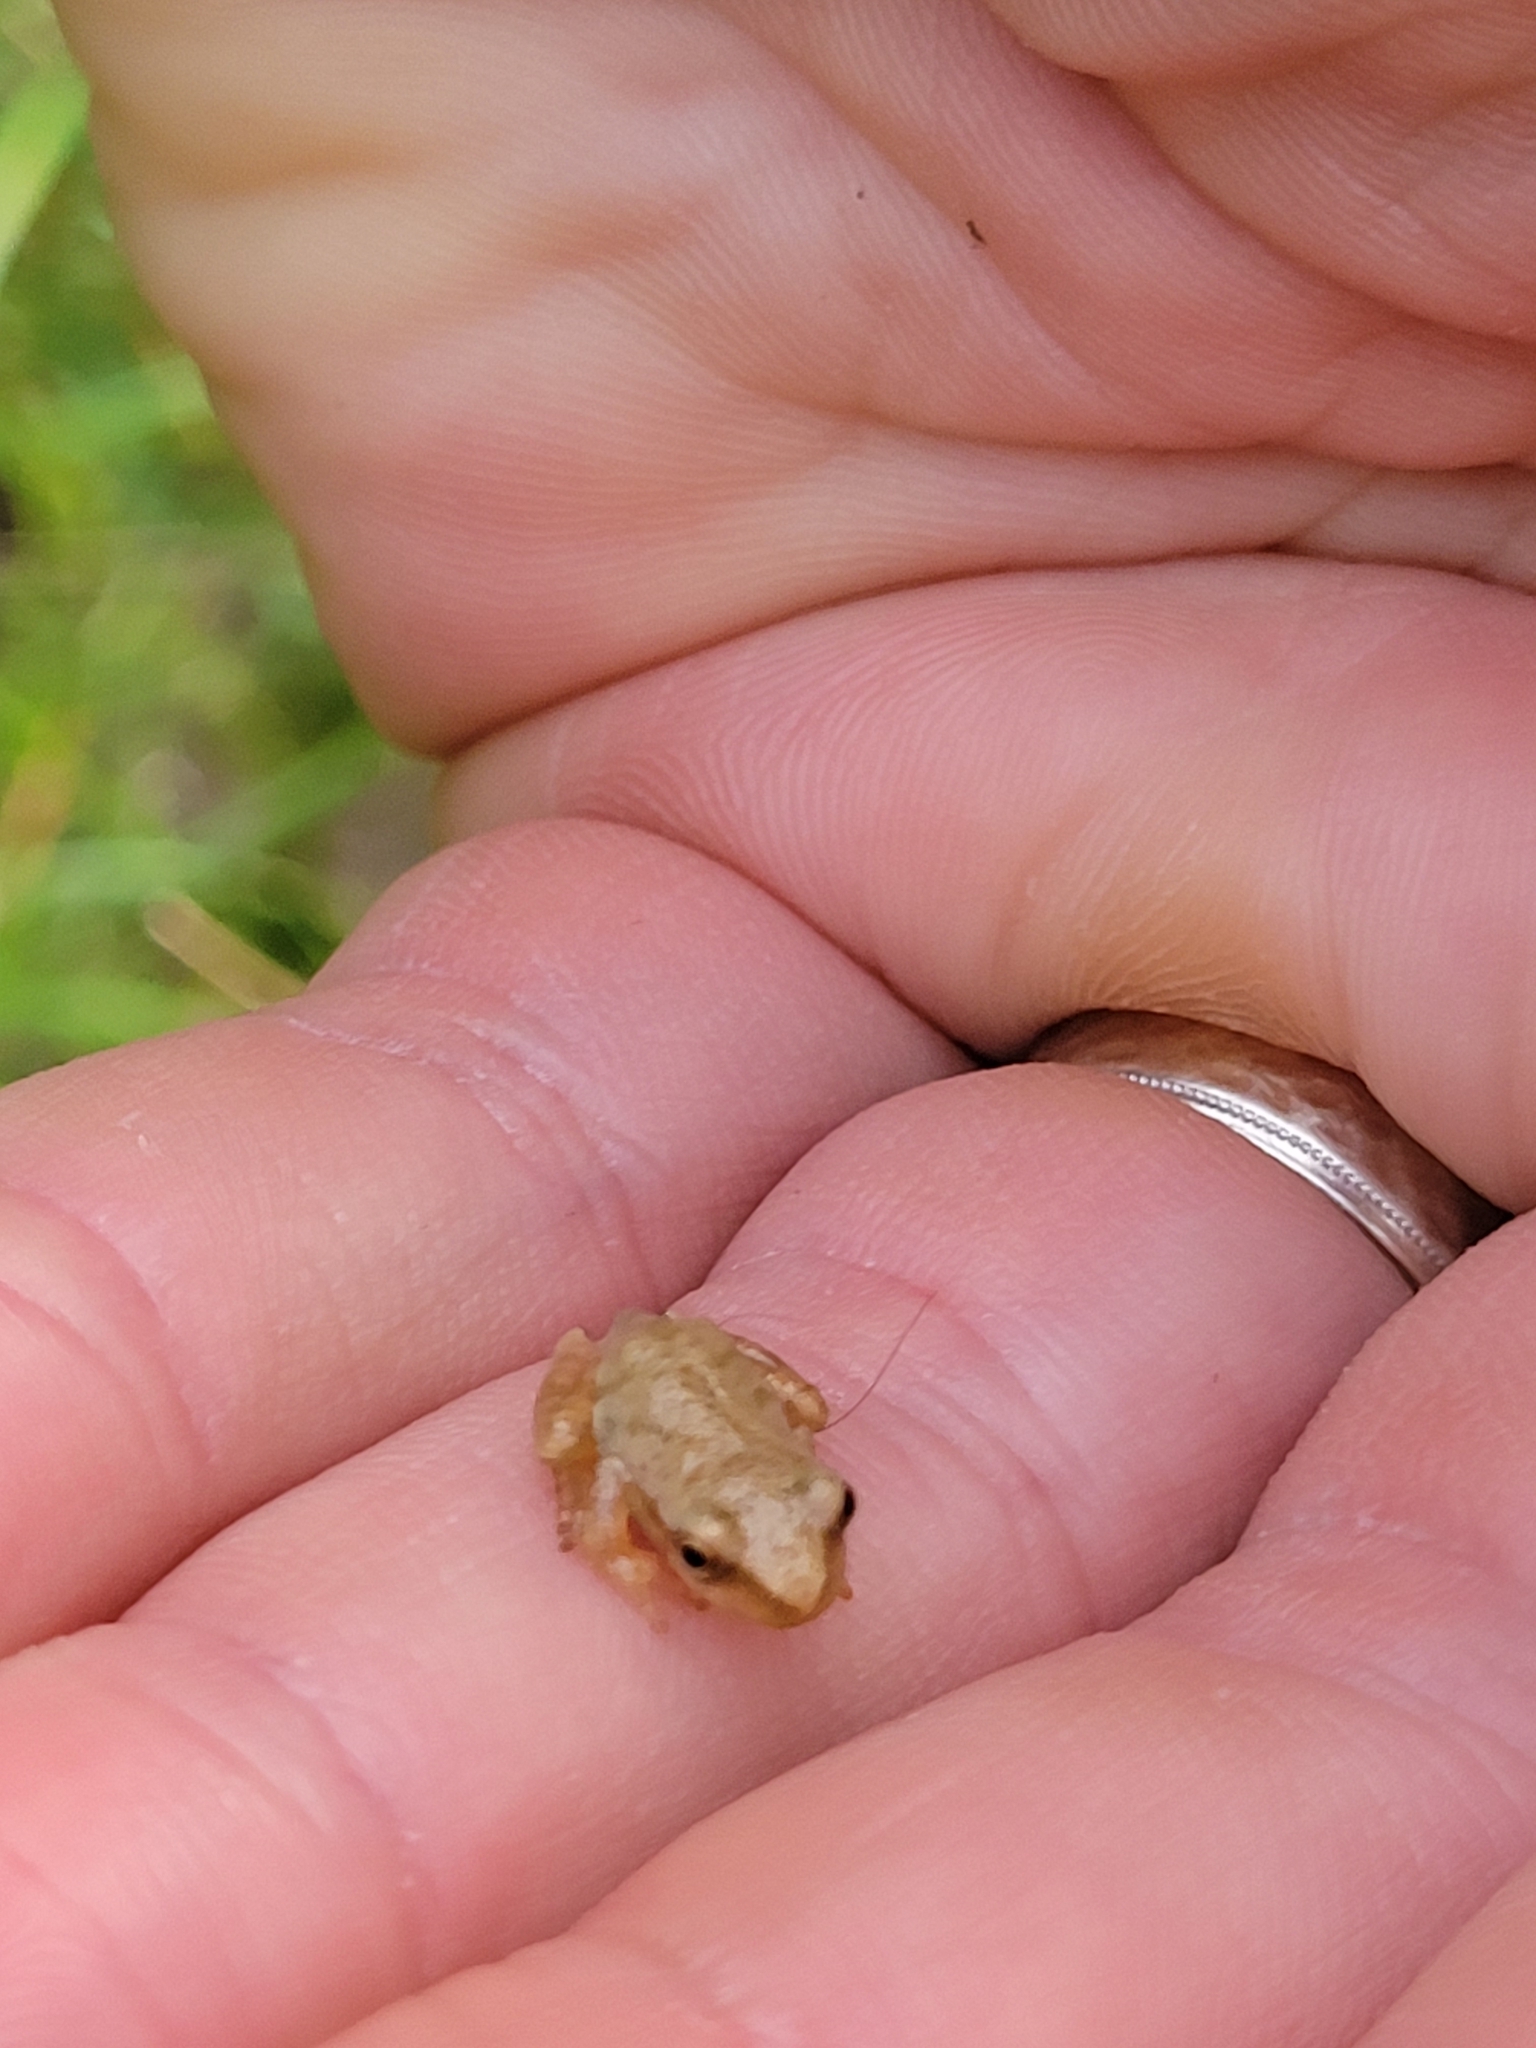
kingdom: Animalia
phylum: Chordata
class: Amphibia
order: Anura
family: Hylidae
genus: Pseudacris
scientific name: Pseudacris crucifer
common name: Spring peeper
